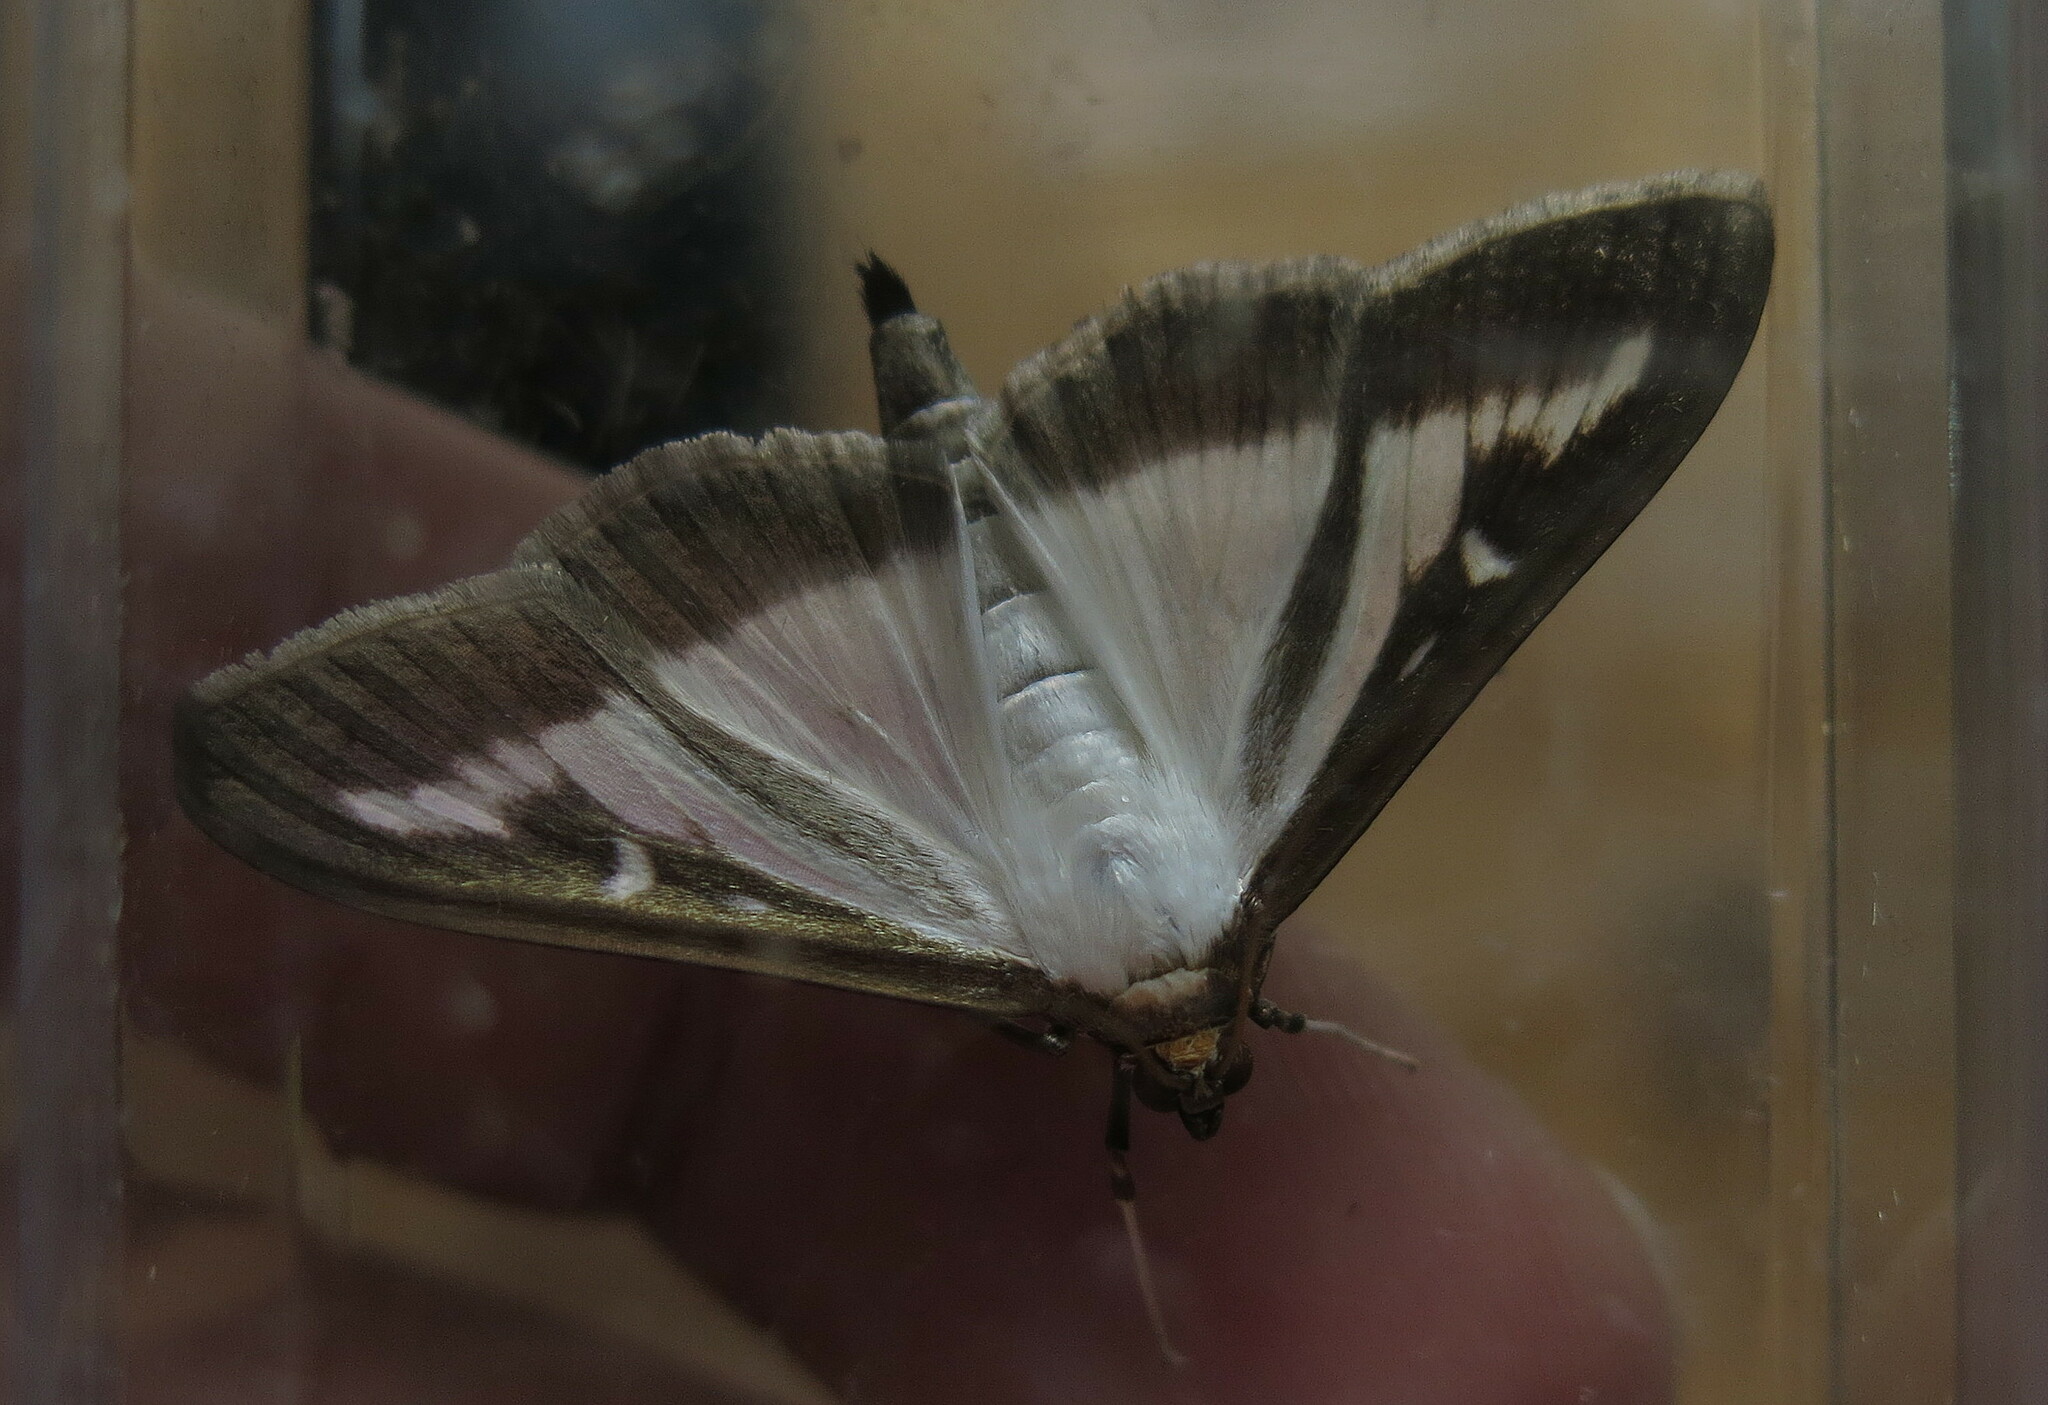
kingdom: Animalia
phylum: Arthropoda
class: Insecta
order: Lepidoptera
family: Crambidae
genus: Cydalima
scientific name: Cydalima perspectalis
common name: Box tree moth
